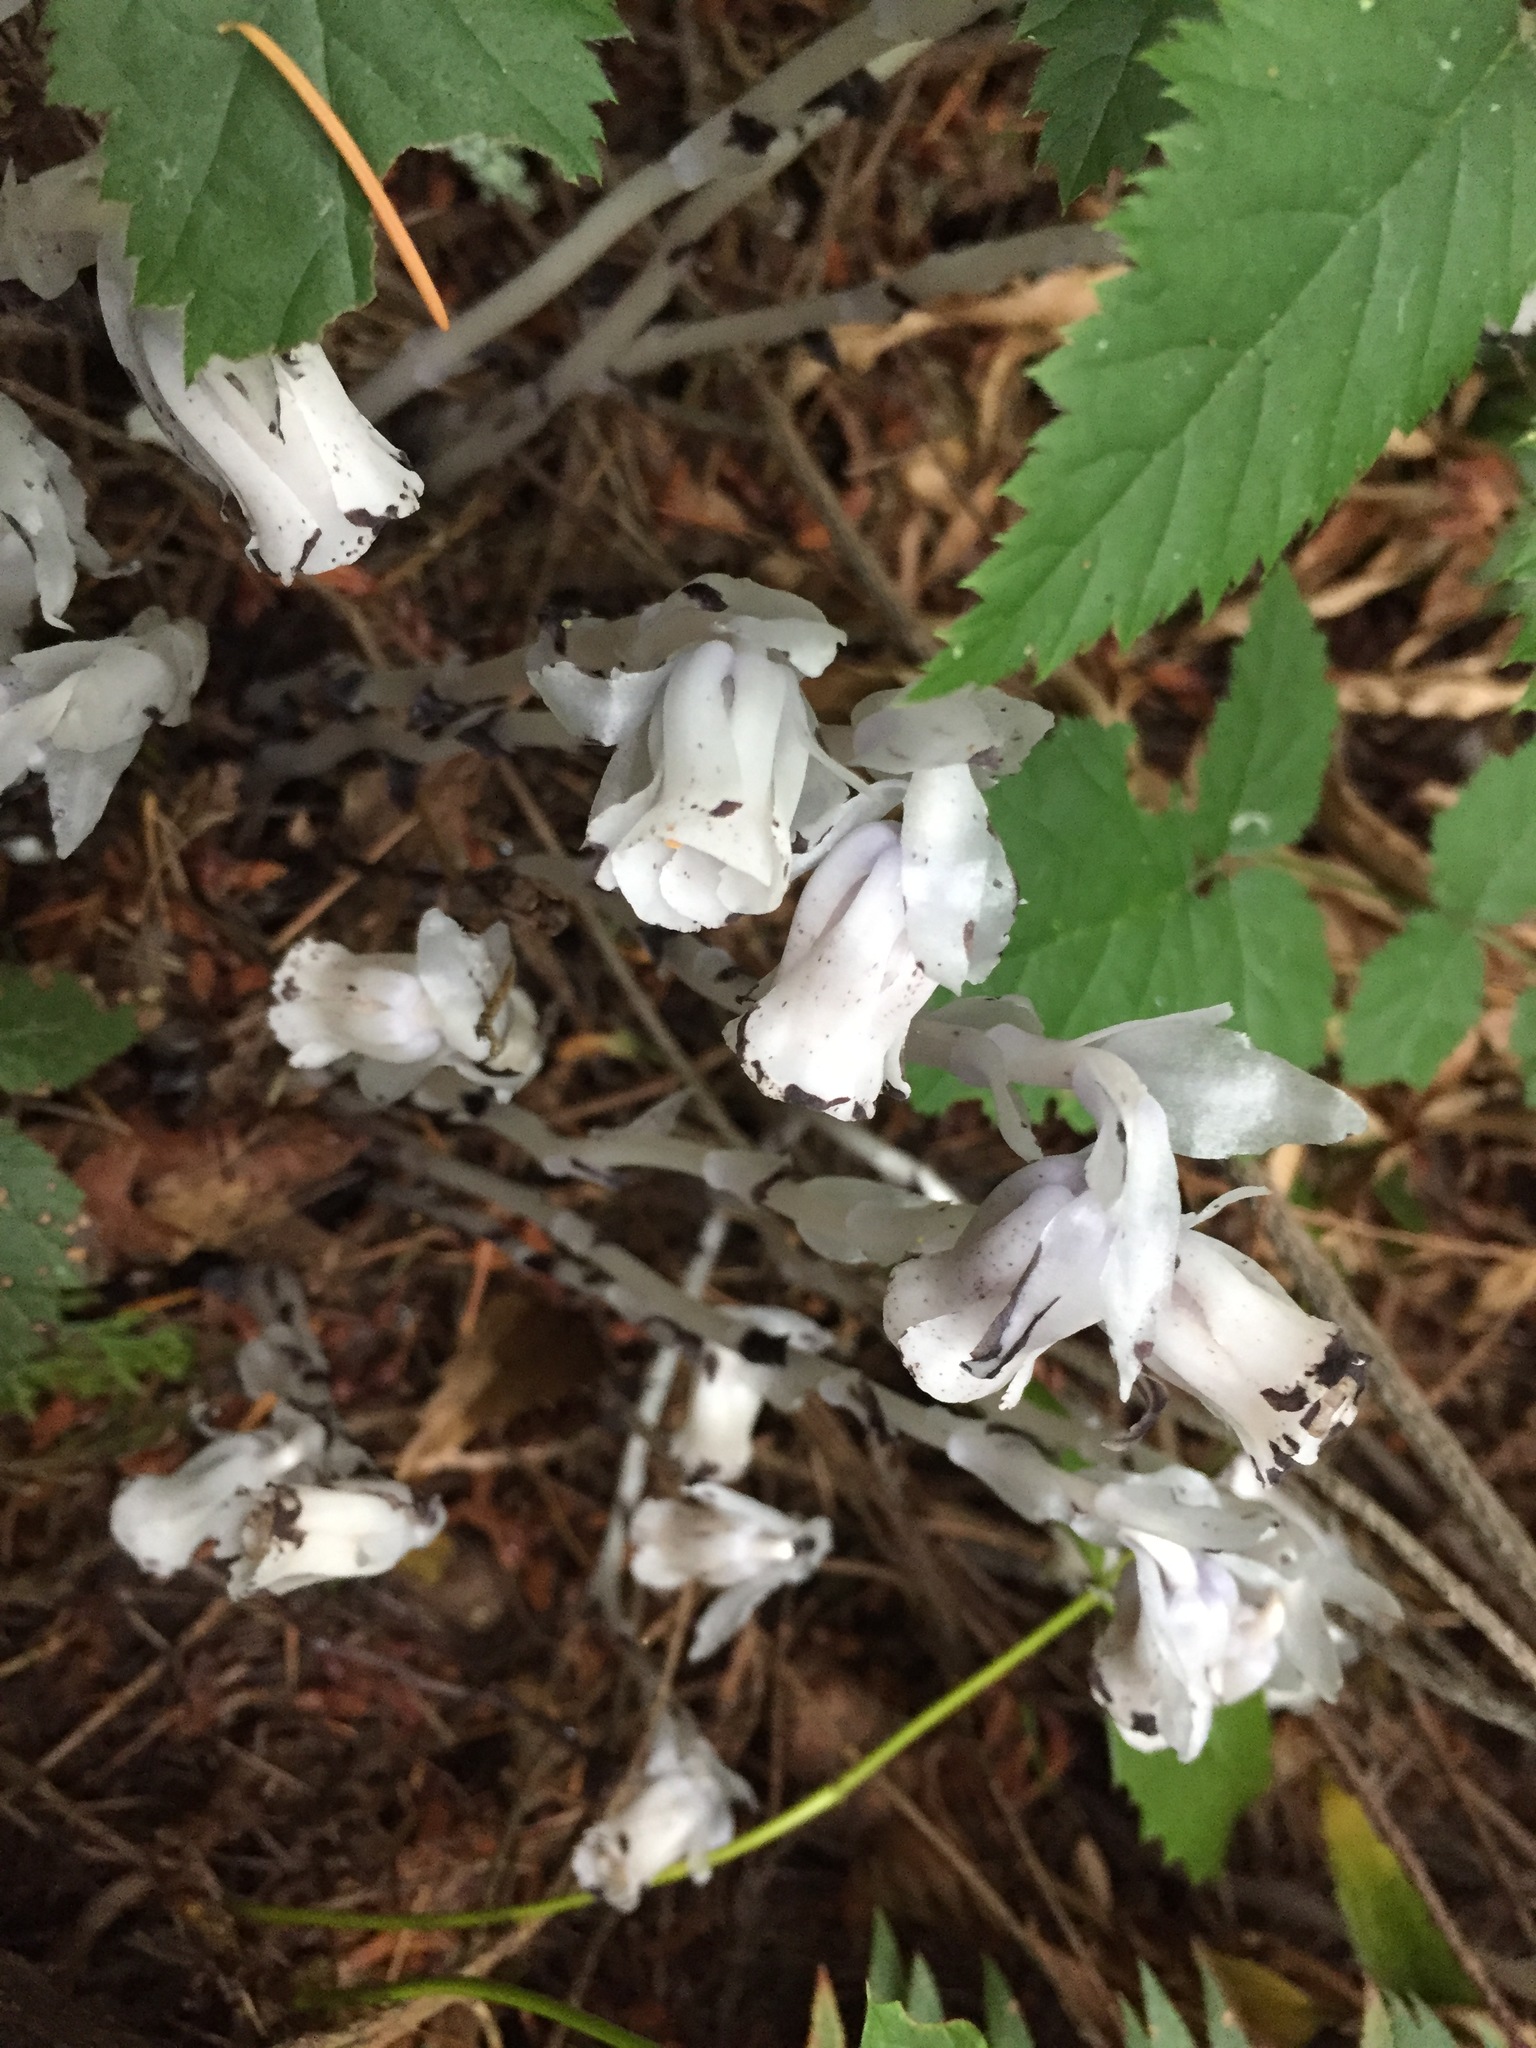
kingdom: Plantae
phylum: Tracheophyta
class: Magnoliopsida
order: Ericales
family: Ericaceae
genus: Monotropa
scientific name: Monotropa uniflora
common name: Convulsion root
